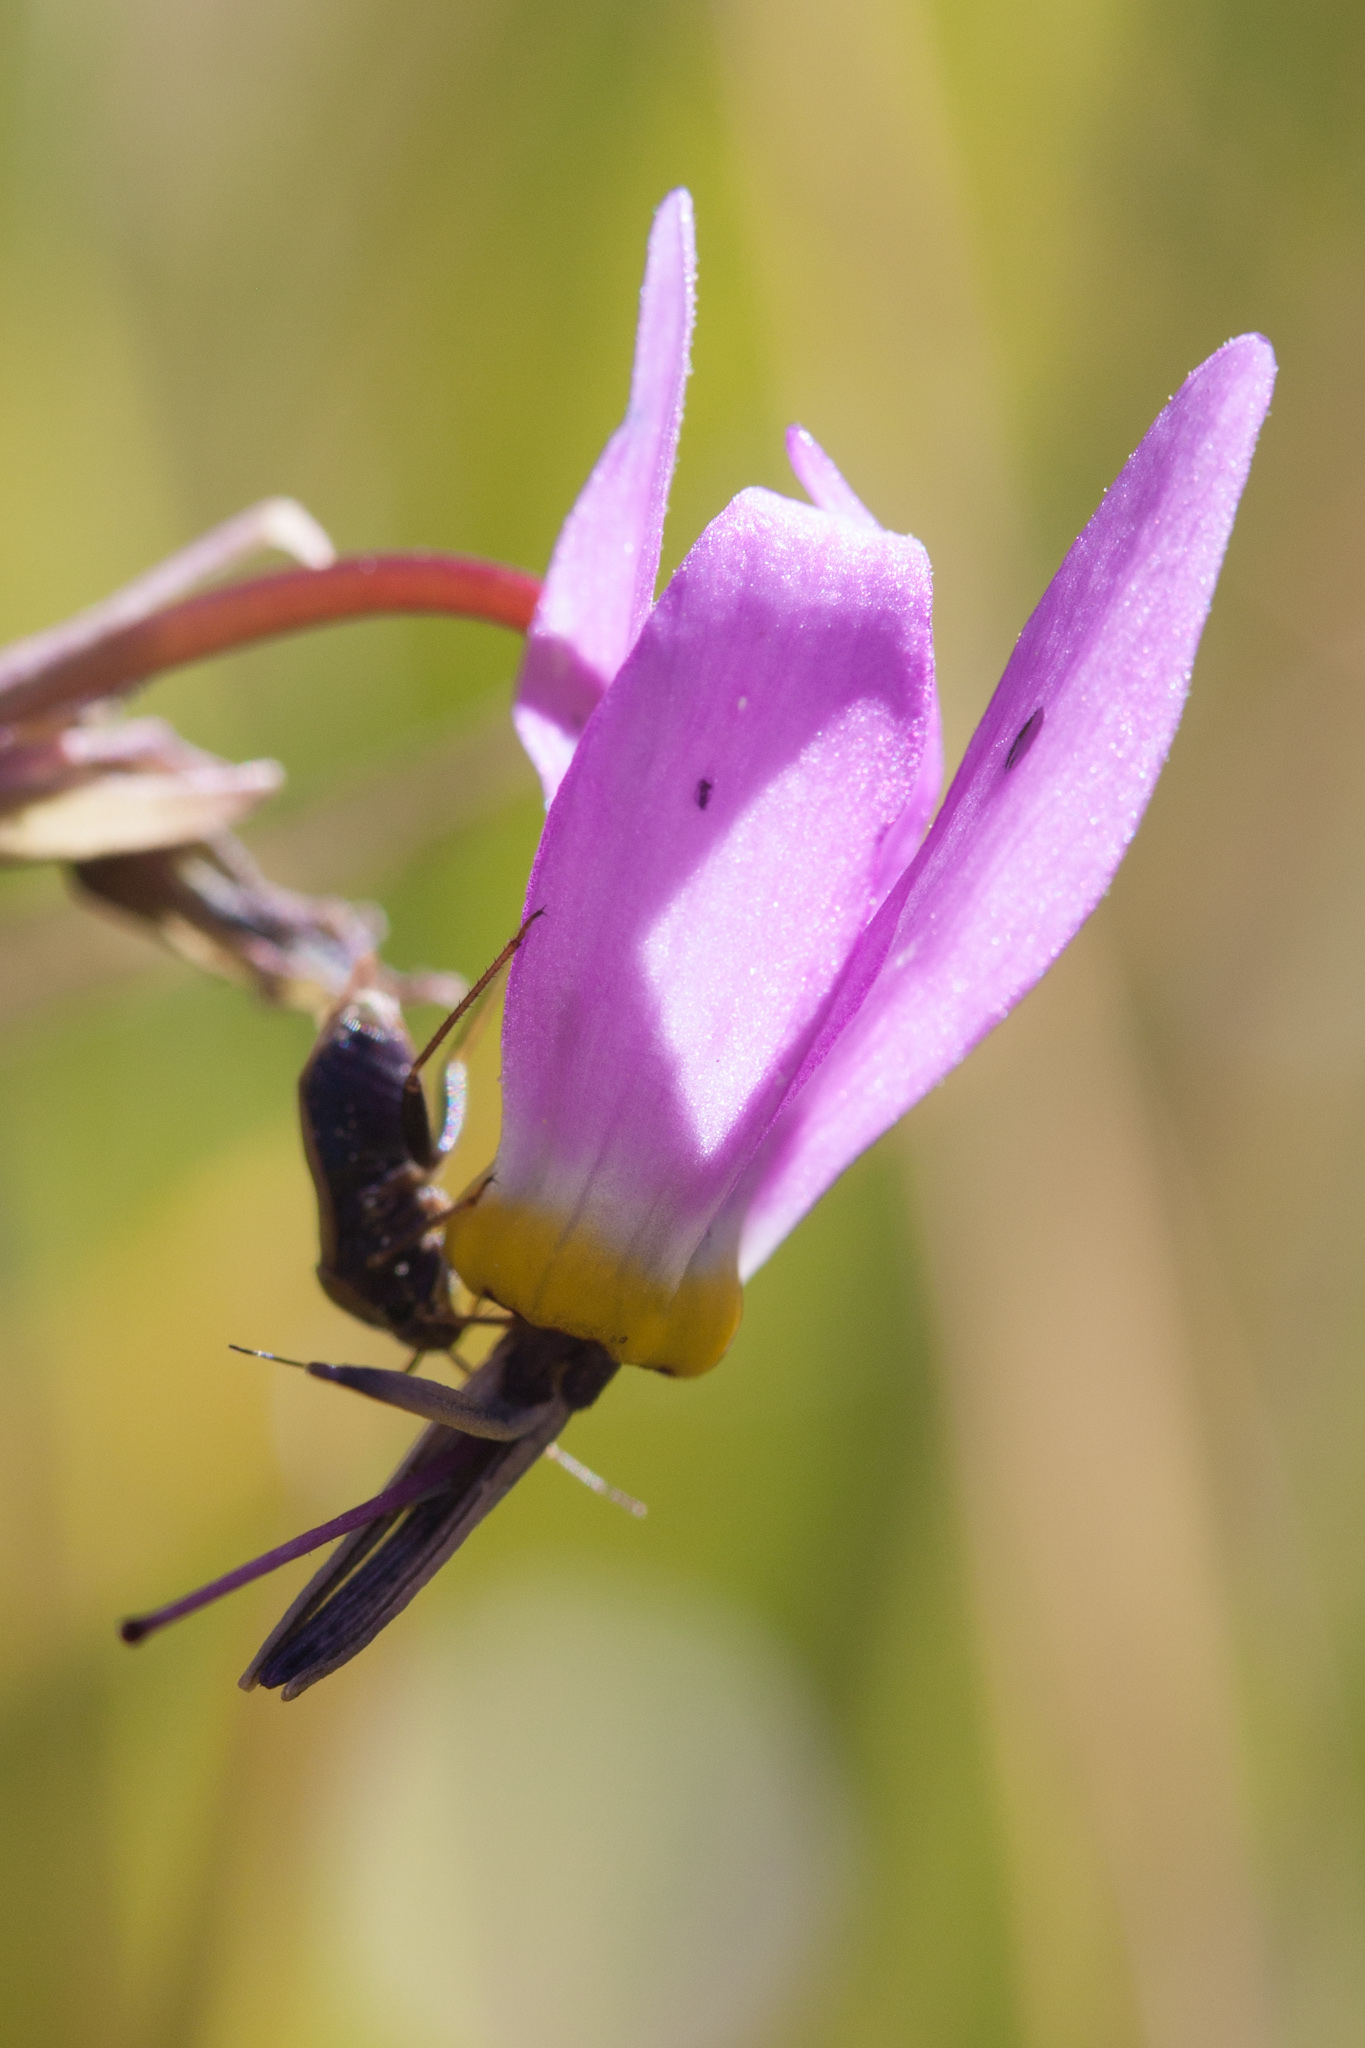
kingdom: Plantae
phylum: Tracheophyta
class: Magnoliopsida
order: Ericales
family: Primulaceae
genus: Dodecatheon
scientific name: Dodecatheon alpinum
